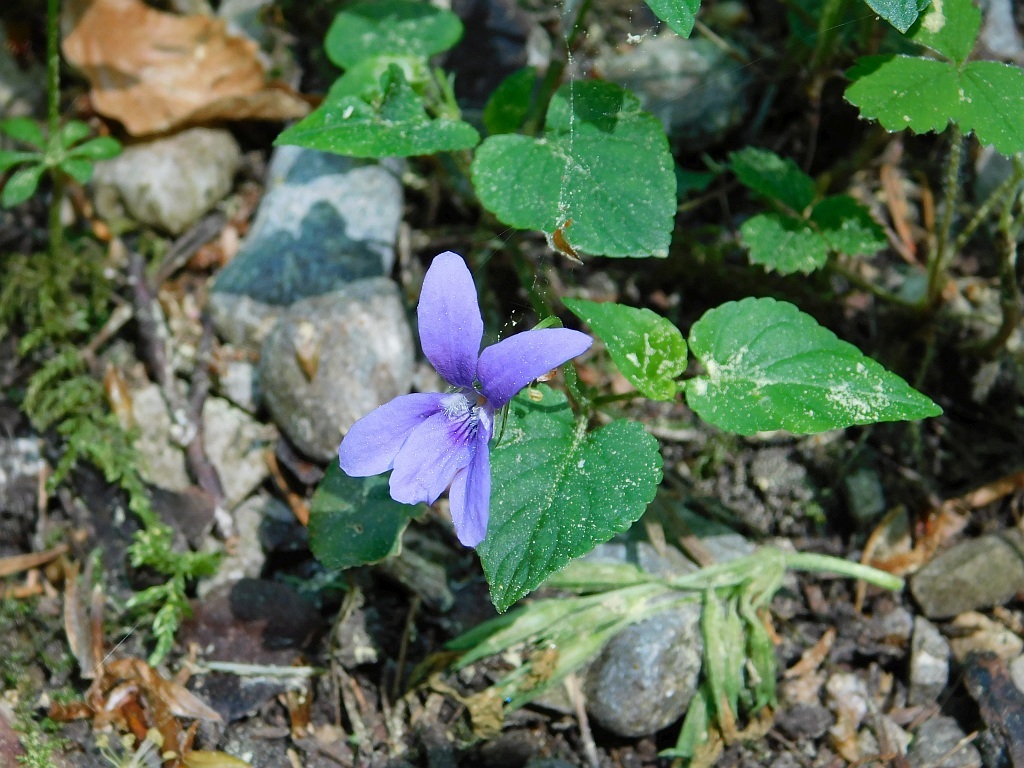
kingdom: Plantae
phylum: Tracheophyta
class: Magnoliopsida
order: Malpighiales
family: Violaceae
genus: Viola
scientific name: Viola reichenbachiana
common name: Early dog-violet
